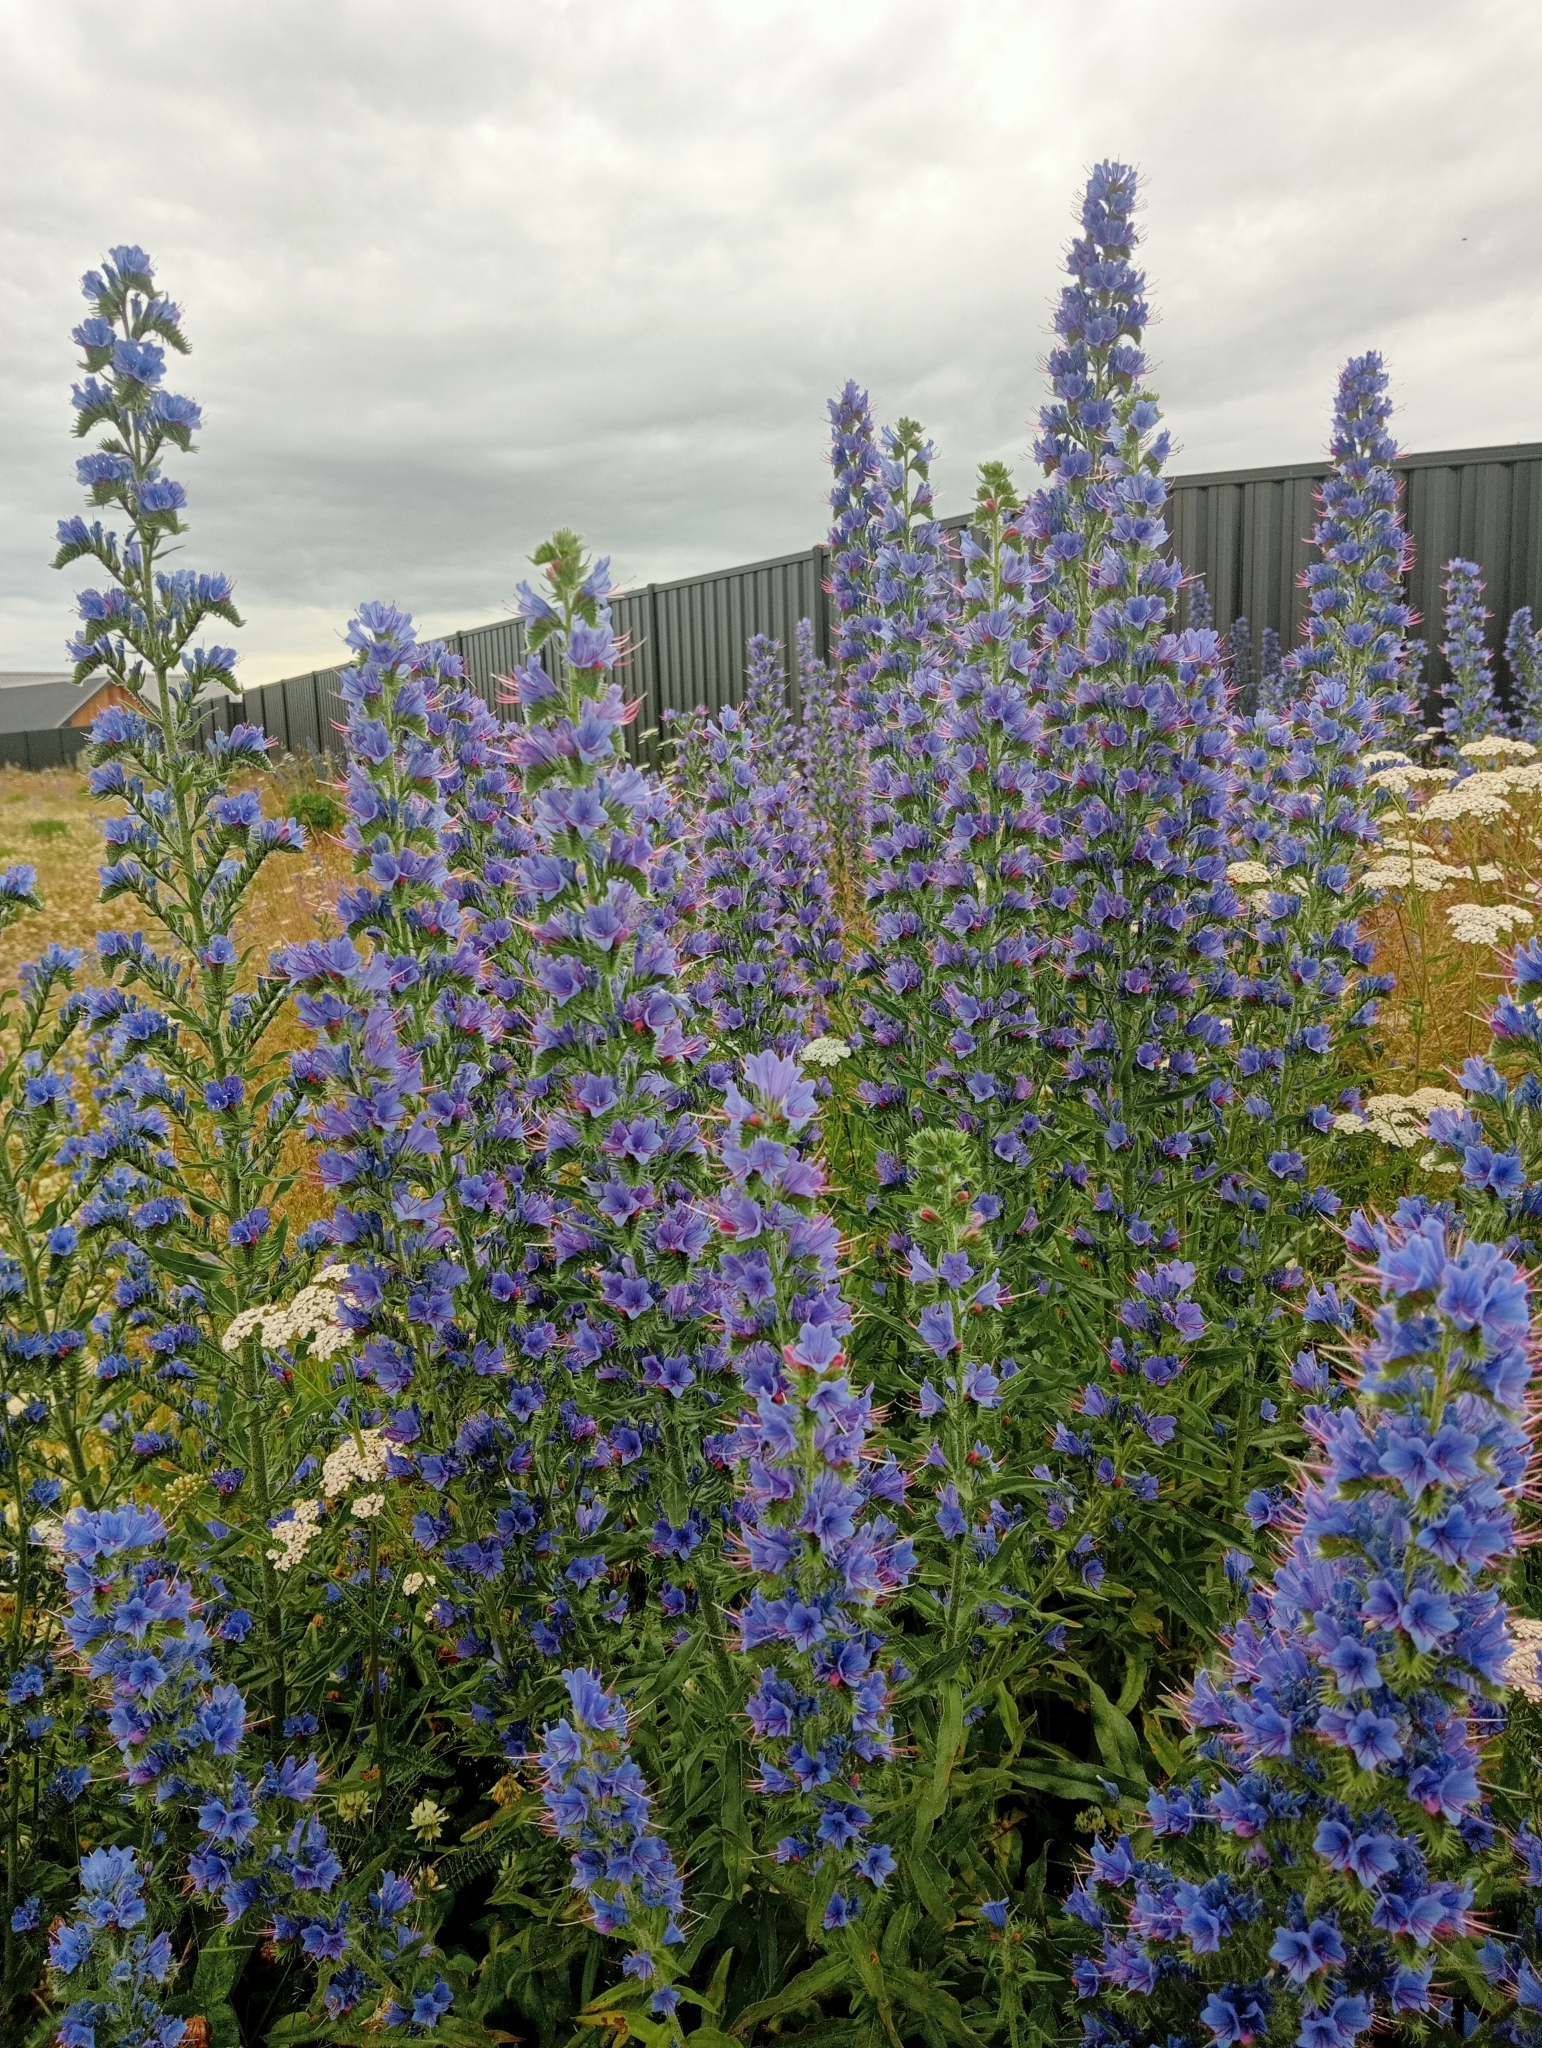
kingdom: Plantae
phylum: Tracheophyta
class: Magnoliopsida
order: Boraginales
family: Boraginaceae
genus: Echium
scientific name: Echium vulgare
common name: Common viper's bugloss
